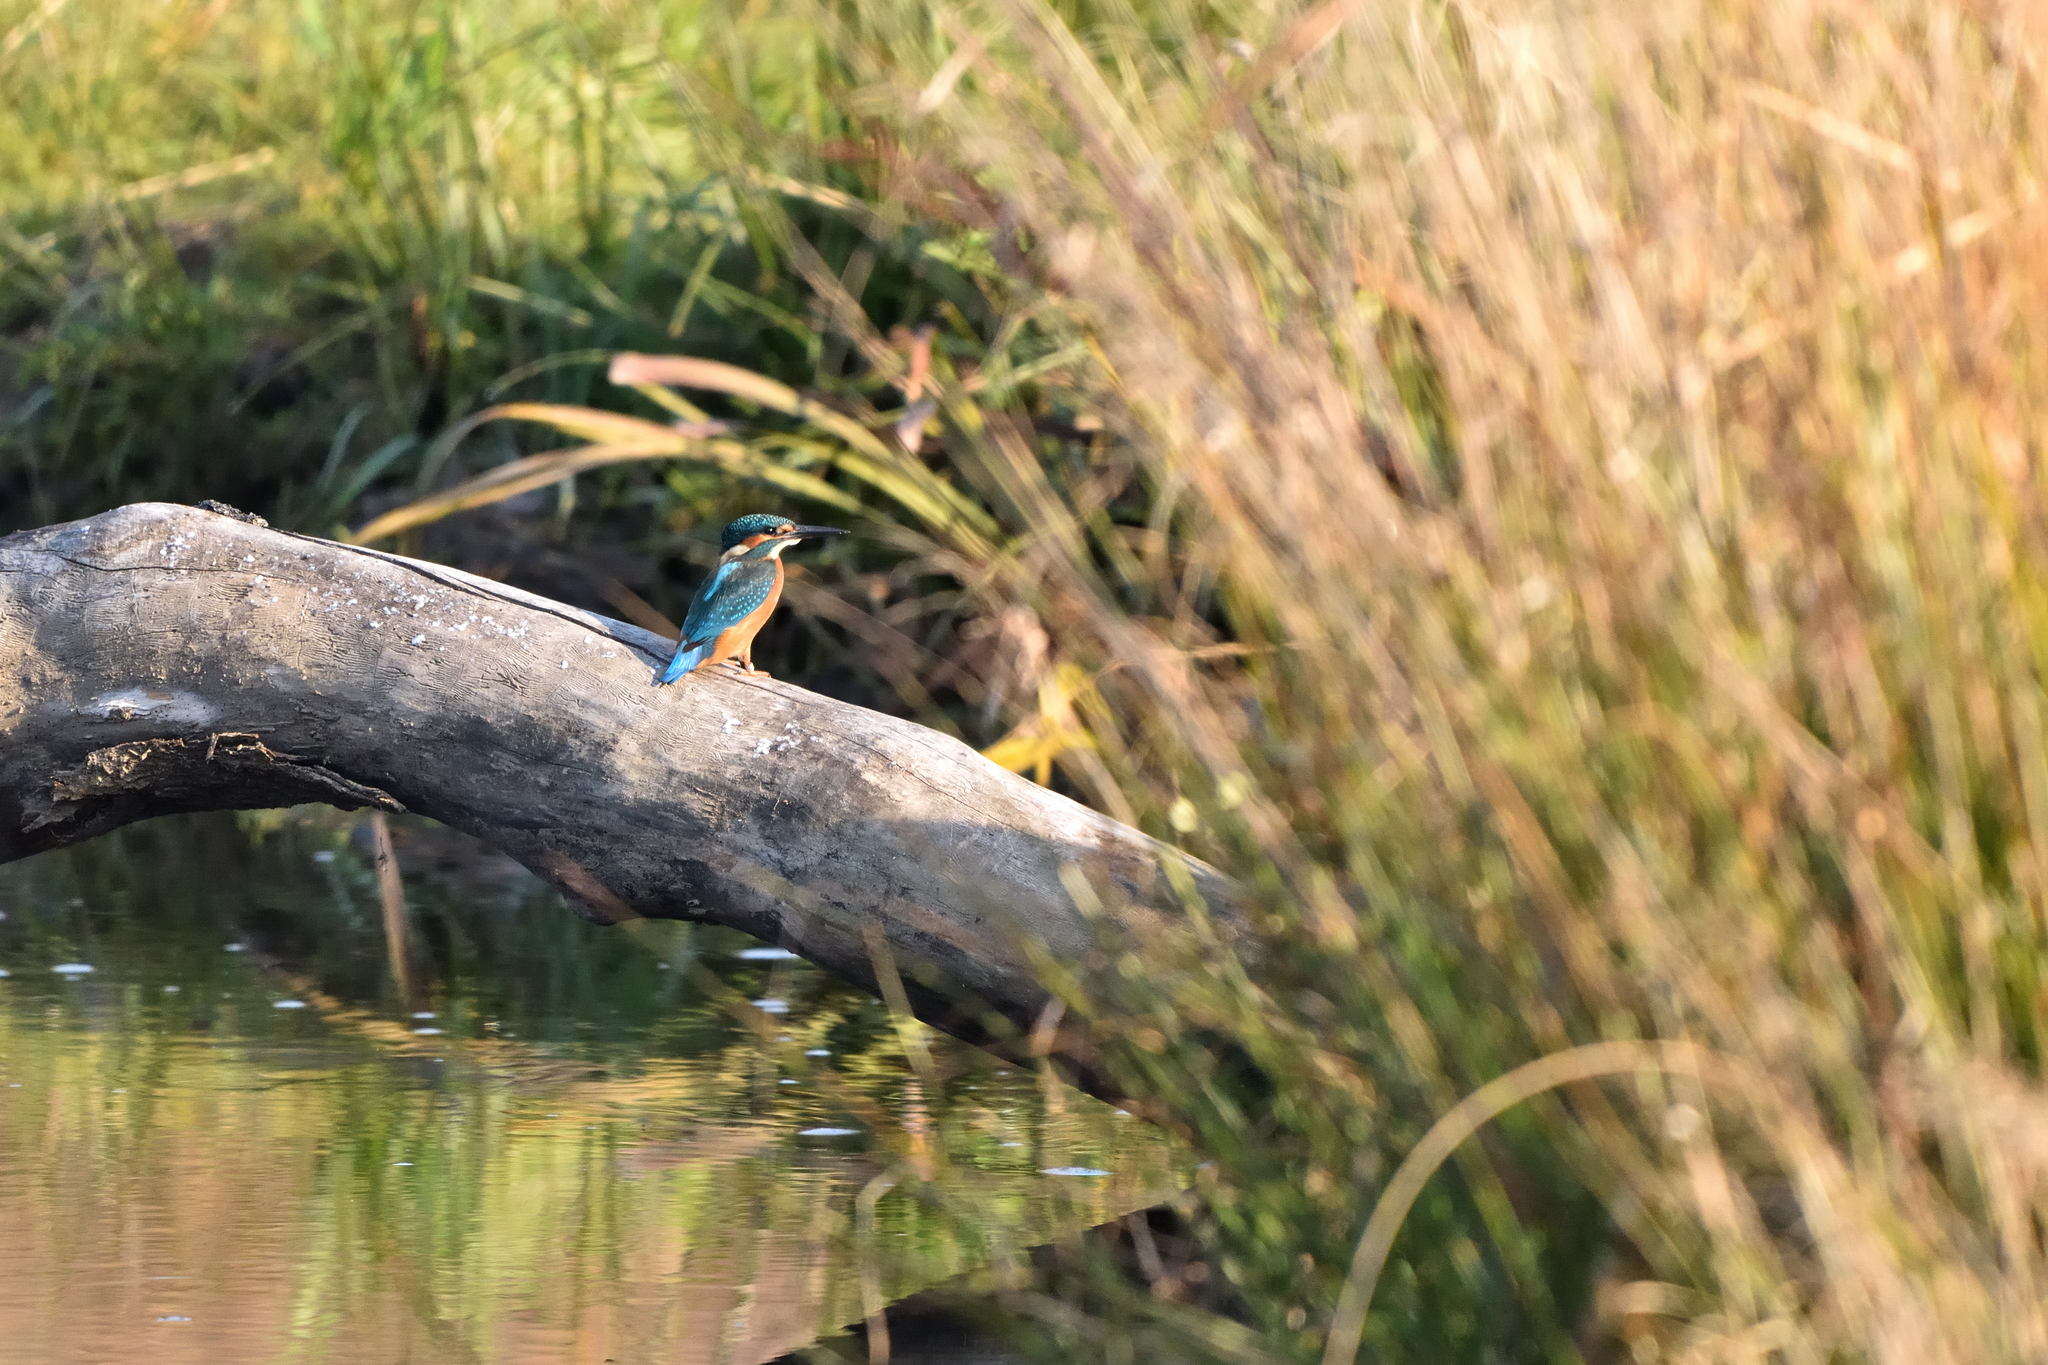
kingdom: Animalia
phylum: Chordata
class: Aves
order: Coraciiformes
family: Alcedinidae
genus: Alcedo
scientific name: Alcedo atthis
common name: Common kingfisher
